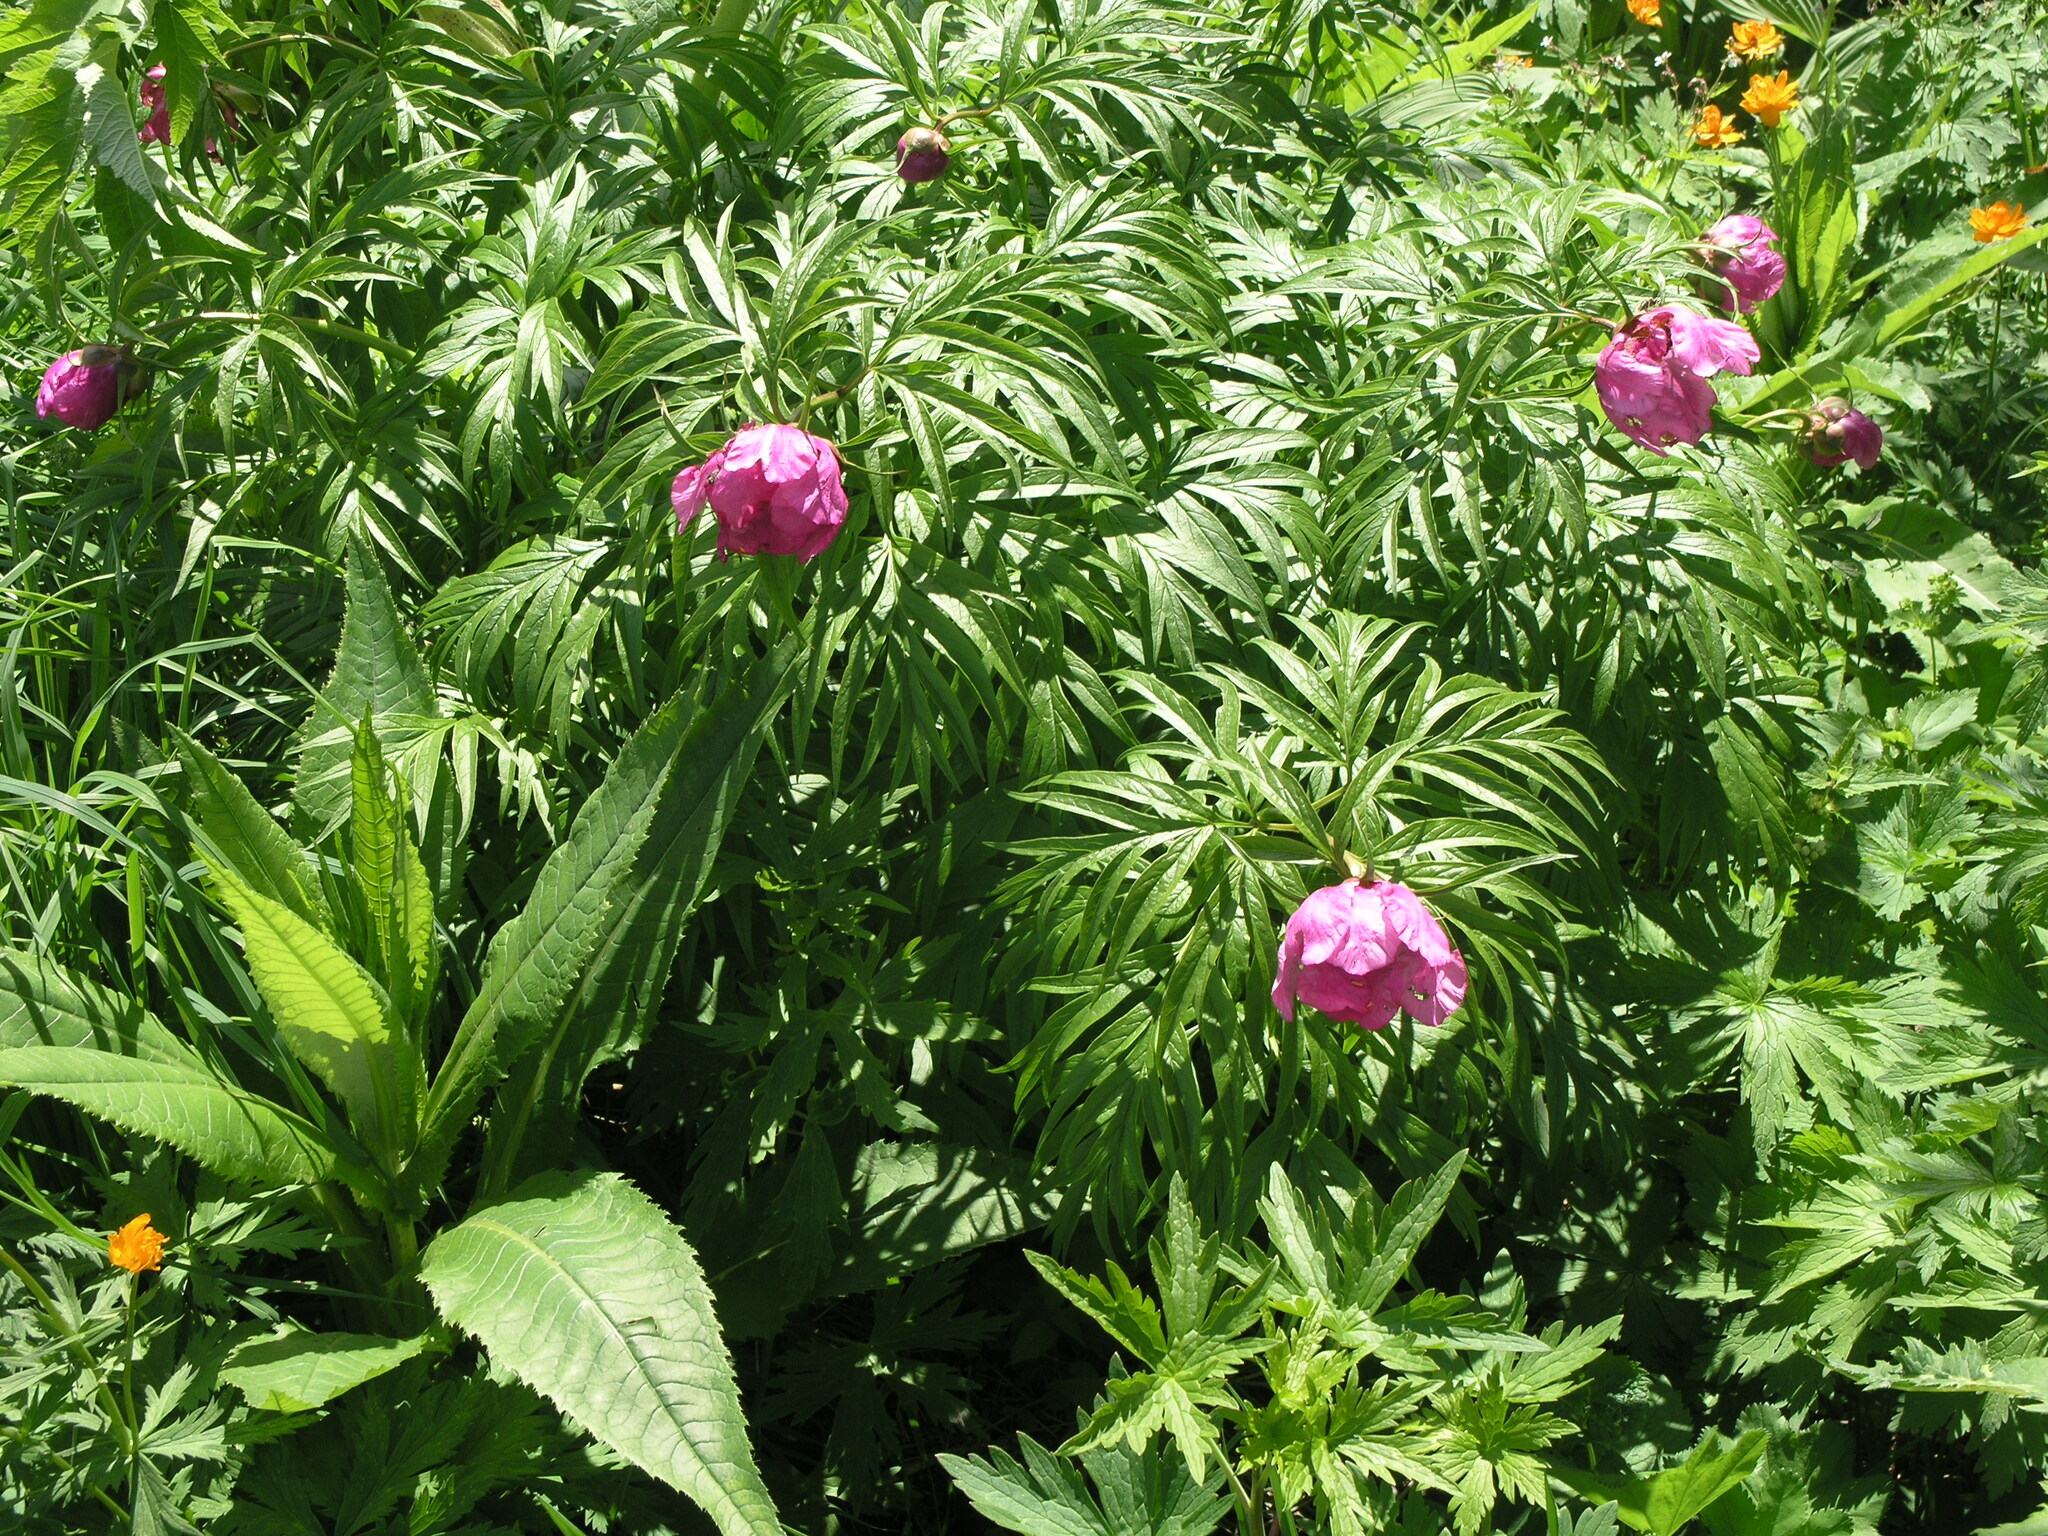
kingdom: Plantae
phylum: Tracheophyta
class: Magnoliopsida
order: Asterales
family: Asteraceae
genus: Cirsium
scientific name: Cirsium helenioides
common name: Melancholy thistle
